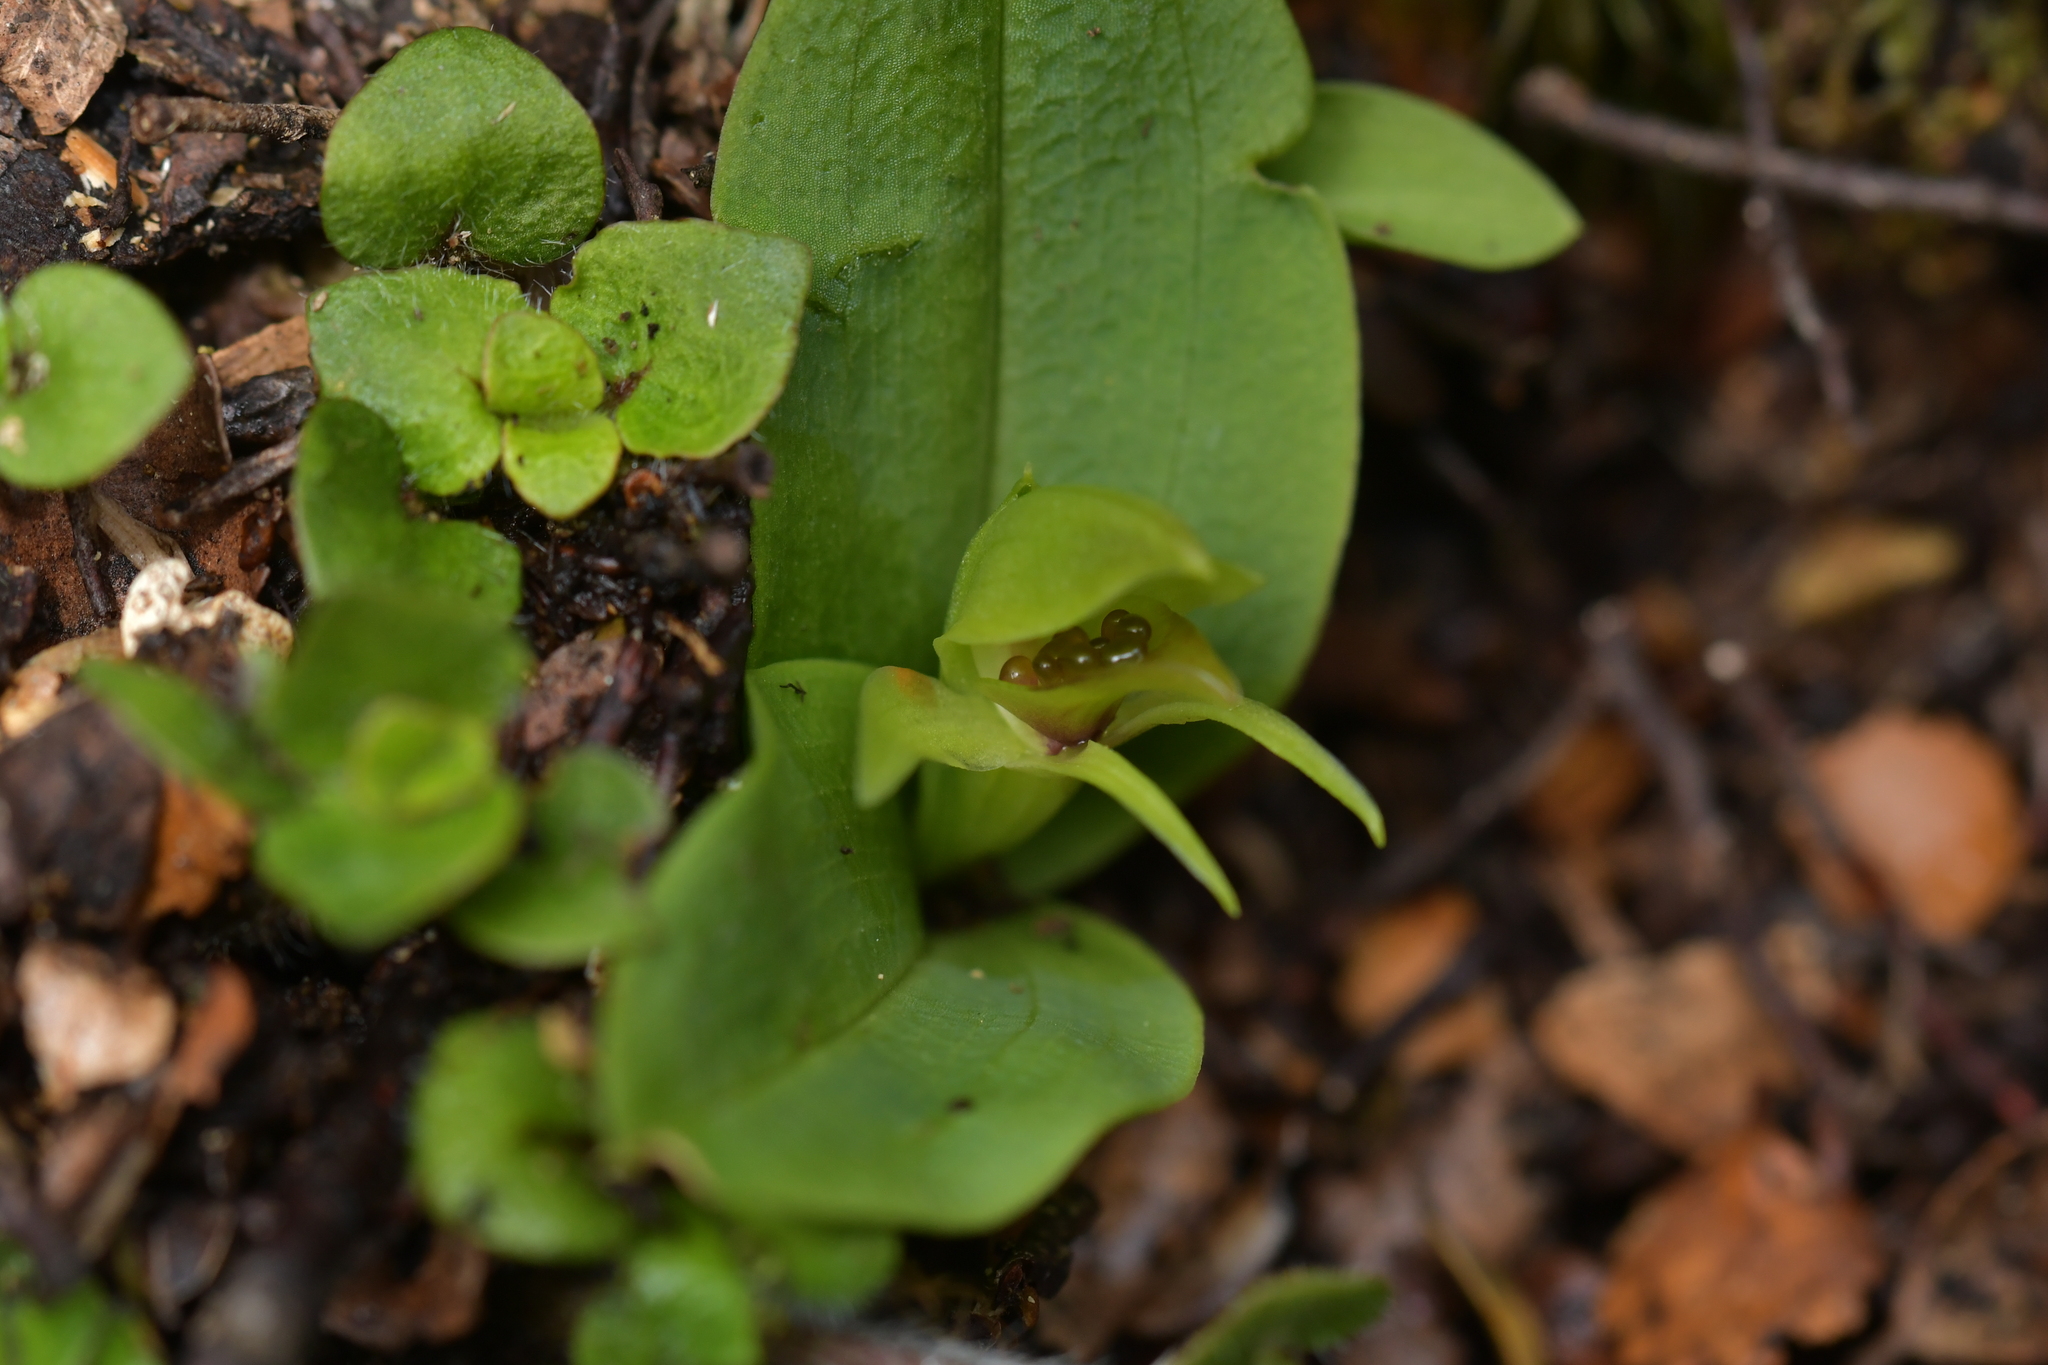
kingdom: Plantae
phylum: Tracheophyta
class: Liliopsida
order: Asparagales
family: Orchidaceae
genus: Chiloglottis
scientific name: Chiloglottis cornuta
